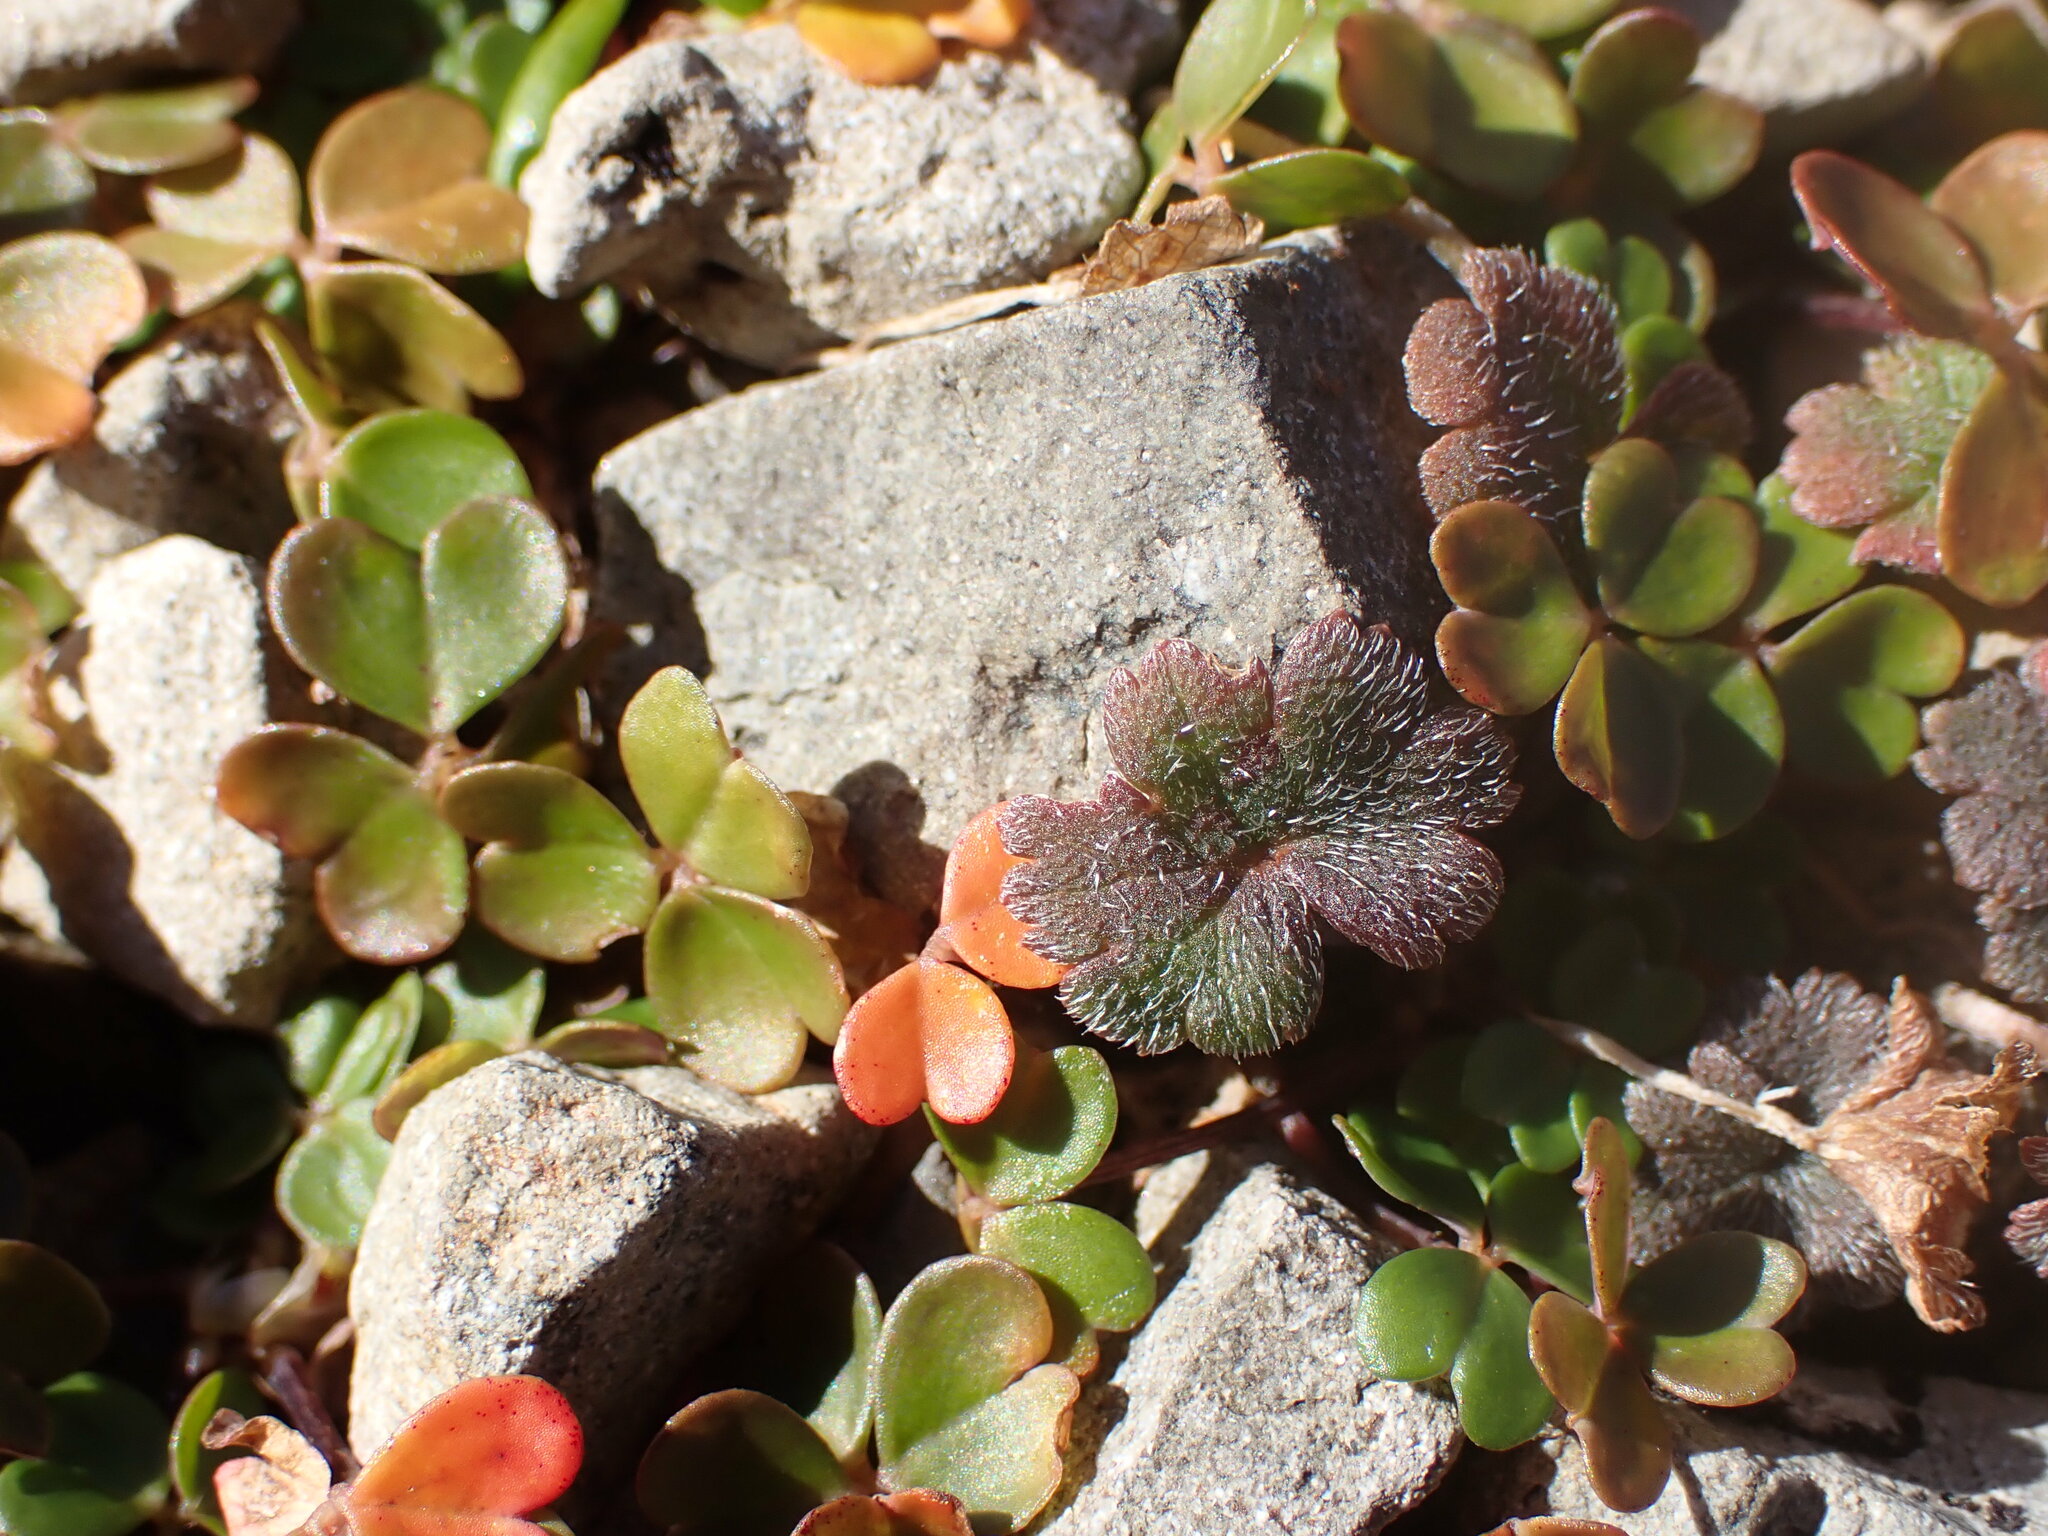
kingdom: Plantae
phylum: Tracheophyta
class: Magnoliopsida
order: Oxalidales
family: Oxalidaceae
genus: Oxalis
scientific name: Oxalis magellanica
